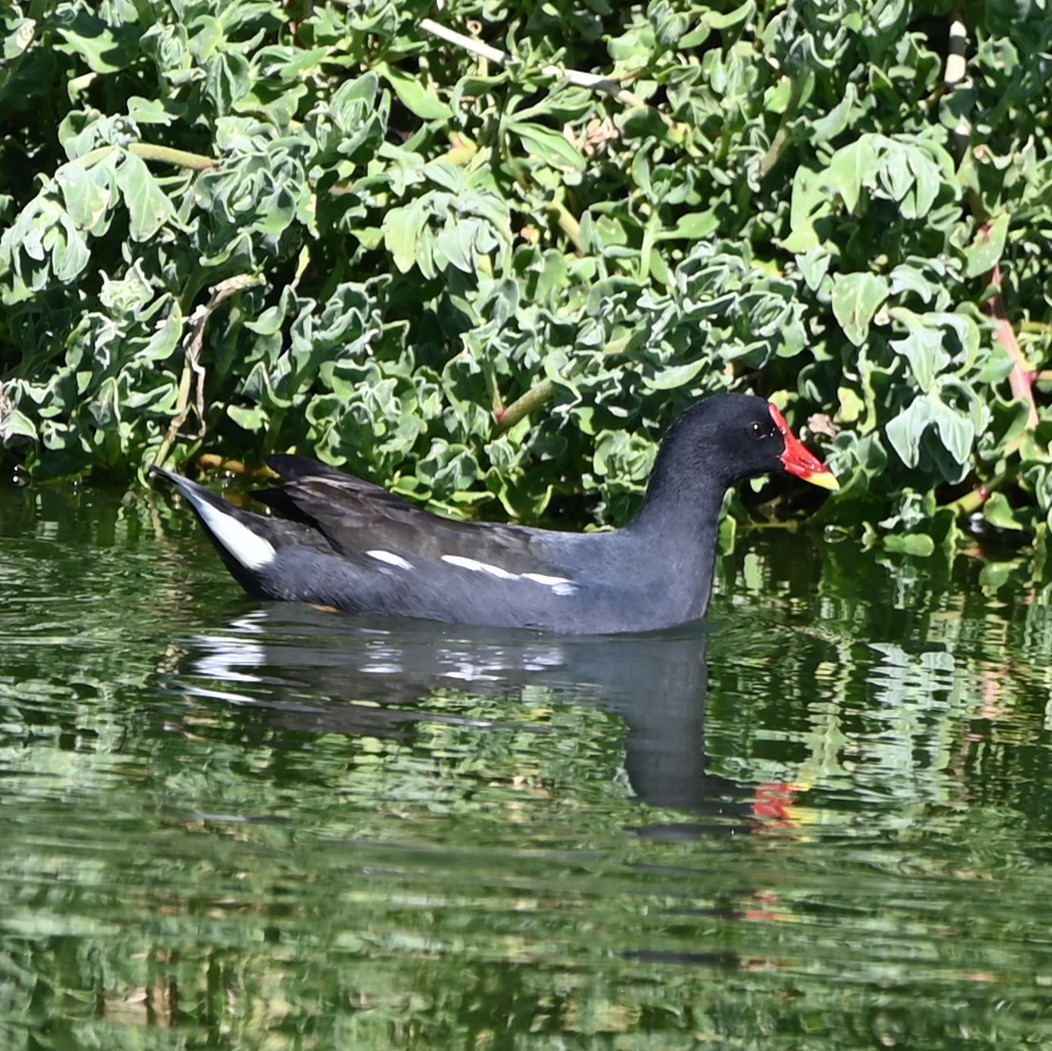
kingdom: Animalia
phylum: Chordata
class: Aves
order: Gruiformes
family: Rallidae
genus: Gallinula
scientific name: Gallinula chloropus
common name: Common moorhen
